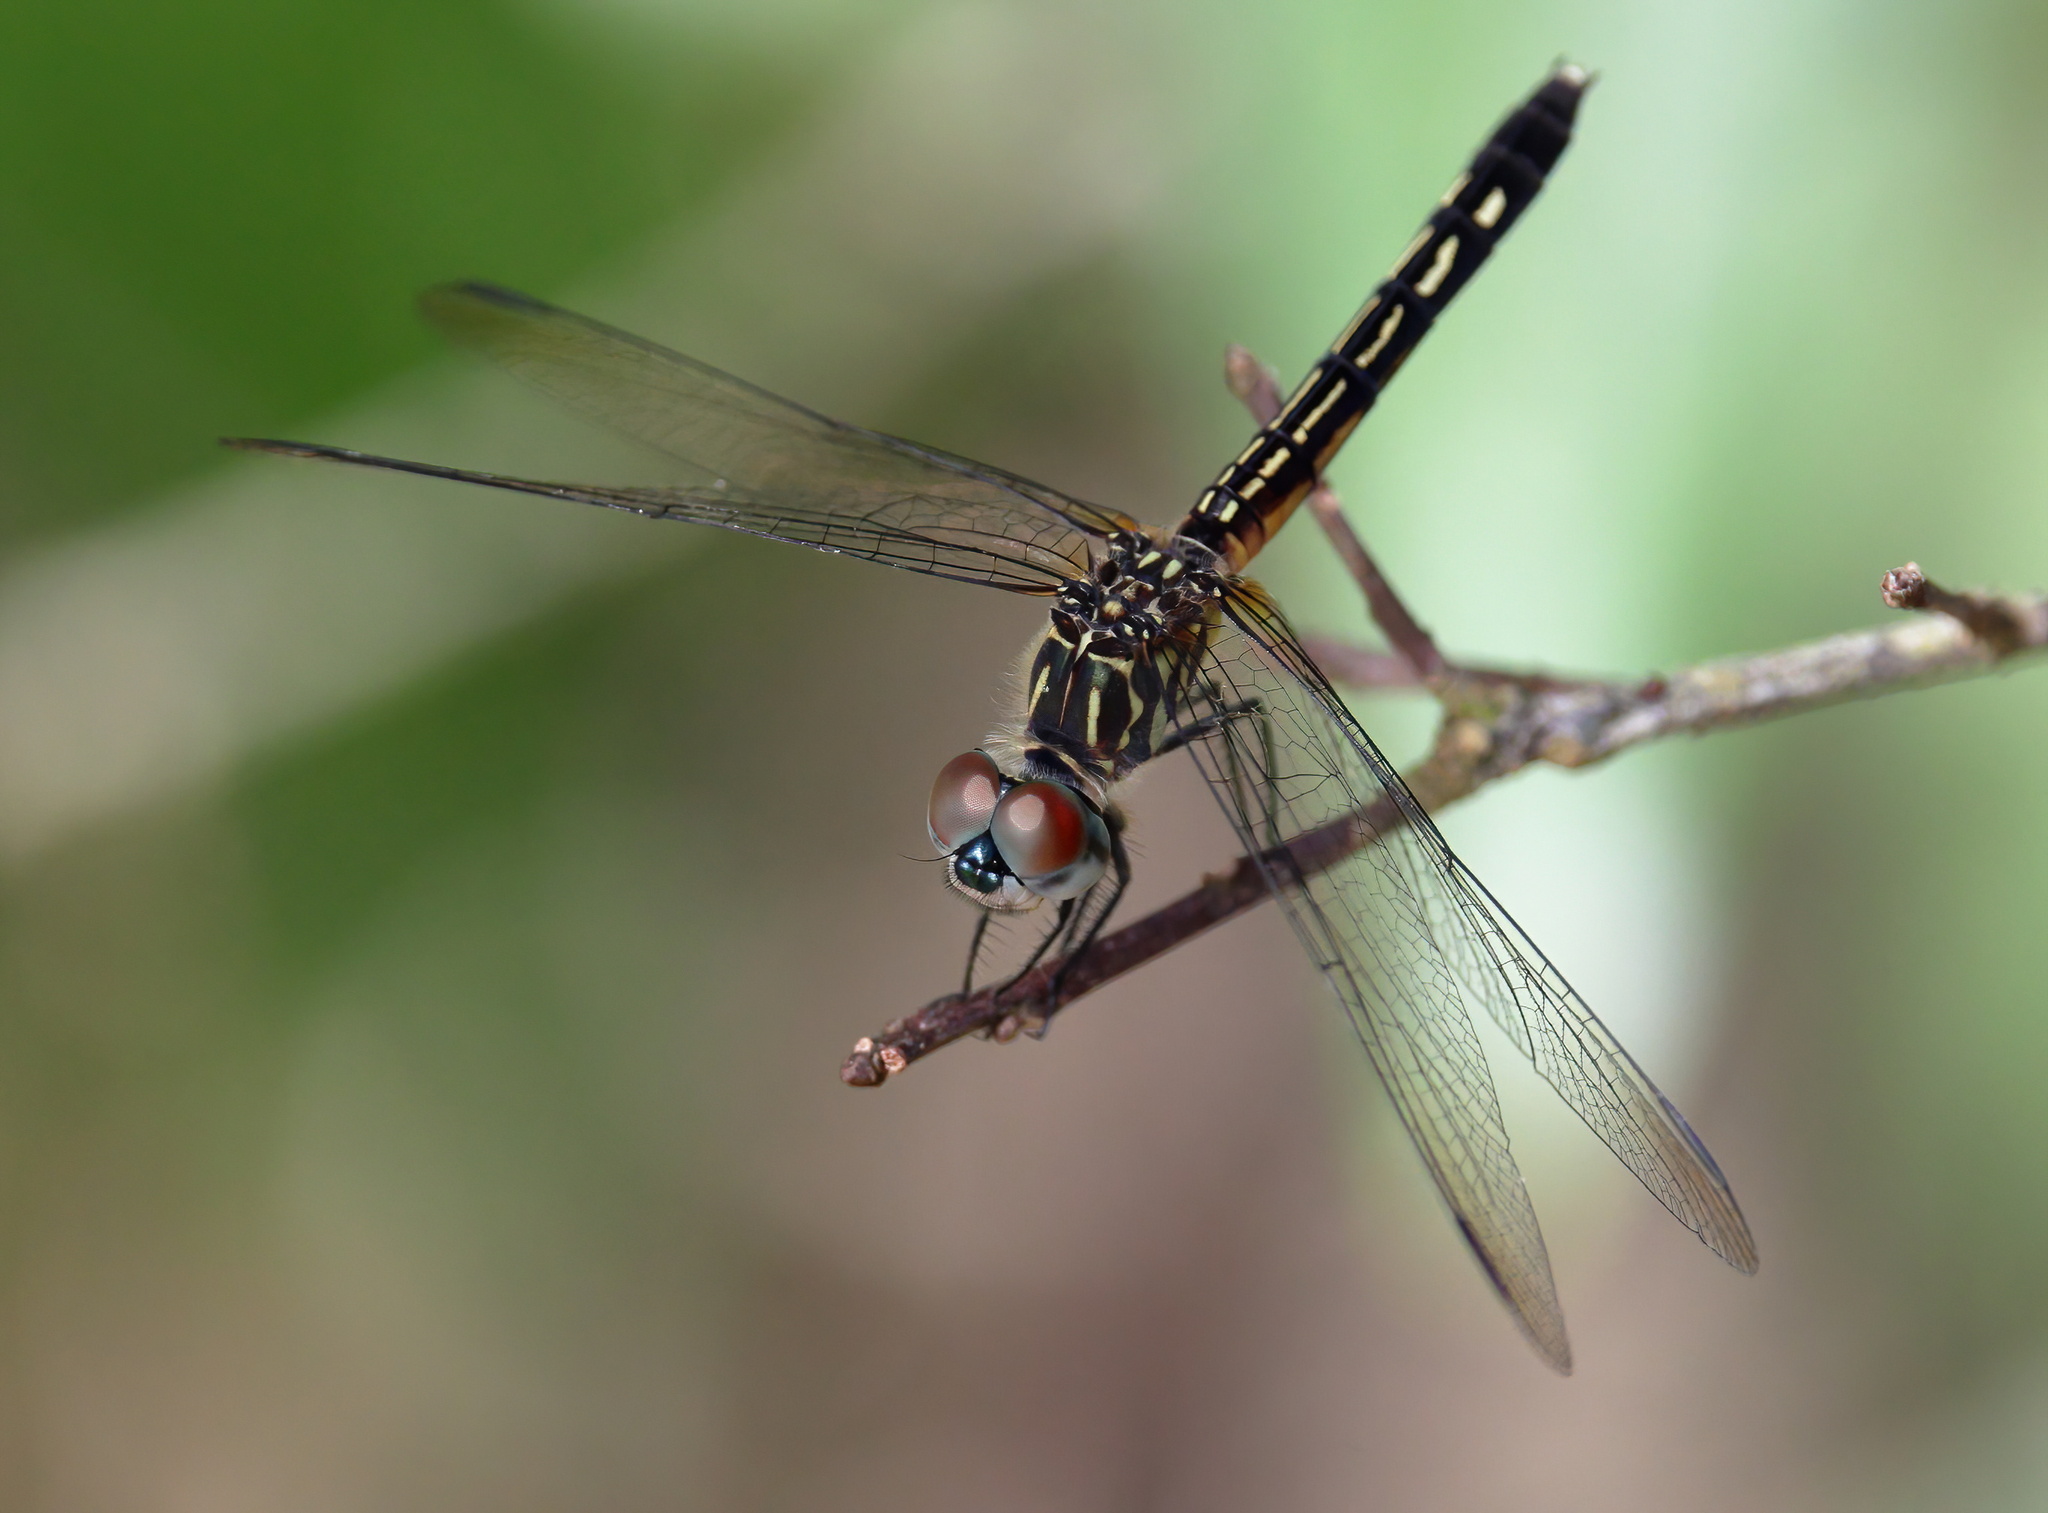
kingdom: Animalia
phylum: Arthropoda
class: Insecta
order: Odonata
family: Libellulidae
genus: Pachydiplax
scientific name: Pachydiplax longipennis
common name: Blue dasher
